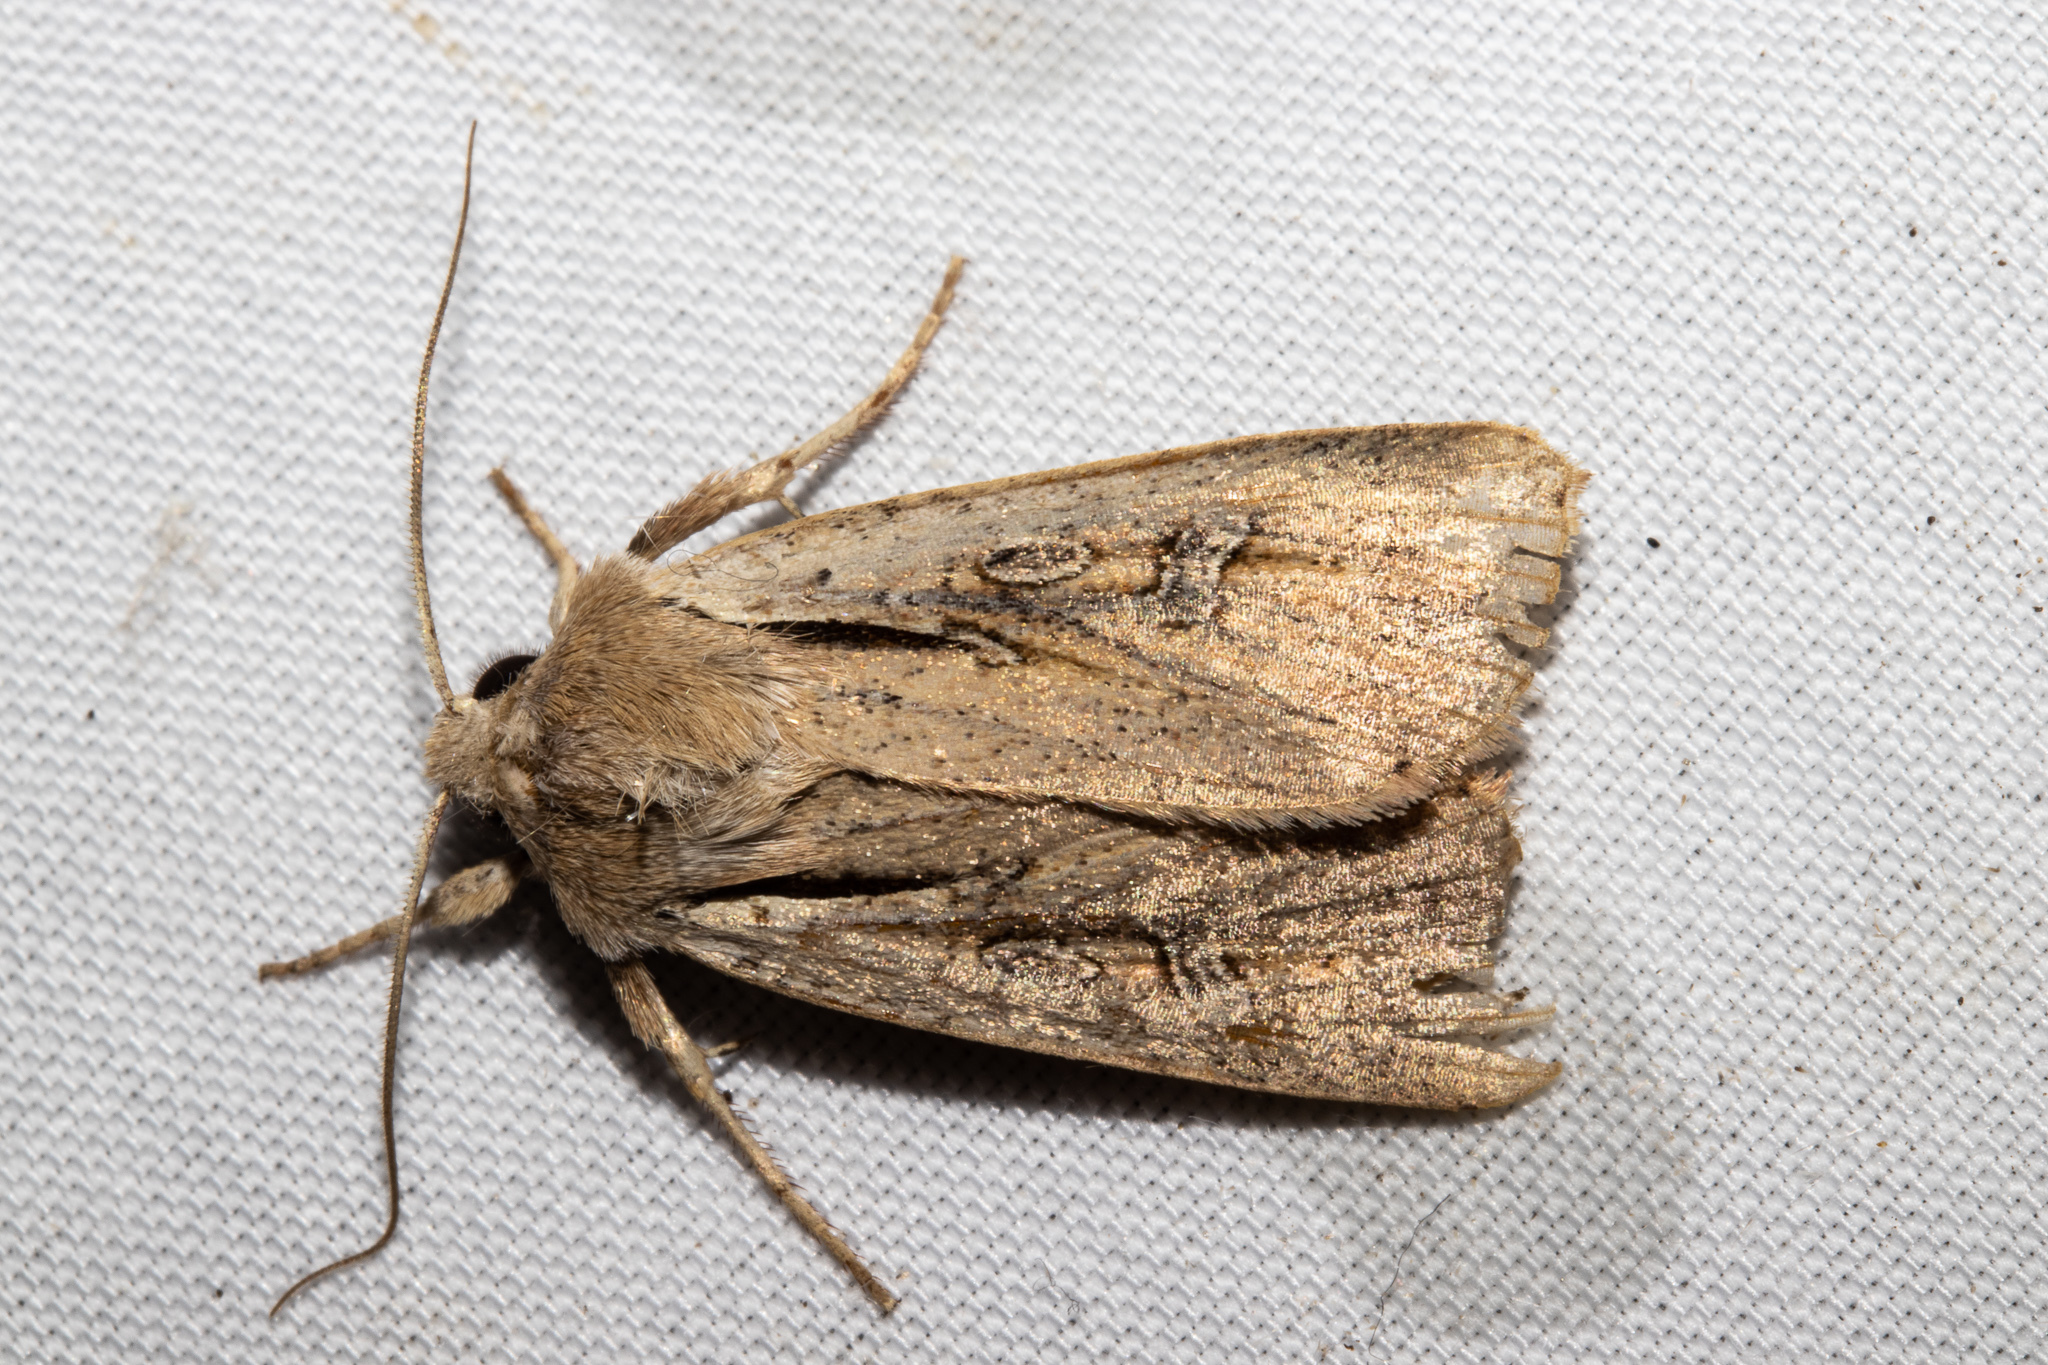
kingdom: Animalia
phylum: Arthropoda
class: Insecta
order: Lepidoptera
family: Noctuidae
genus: Ichneutica
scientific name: Ichneutica atristriga
